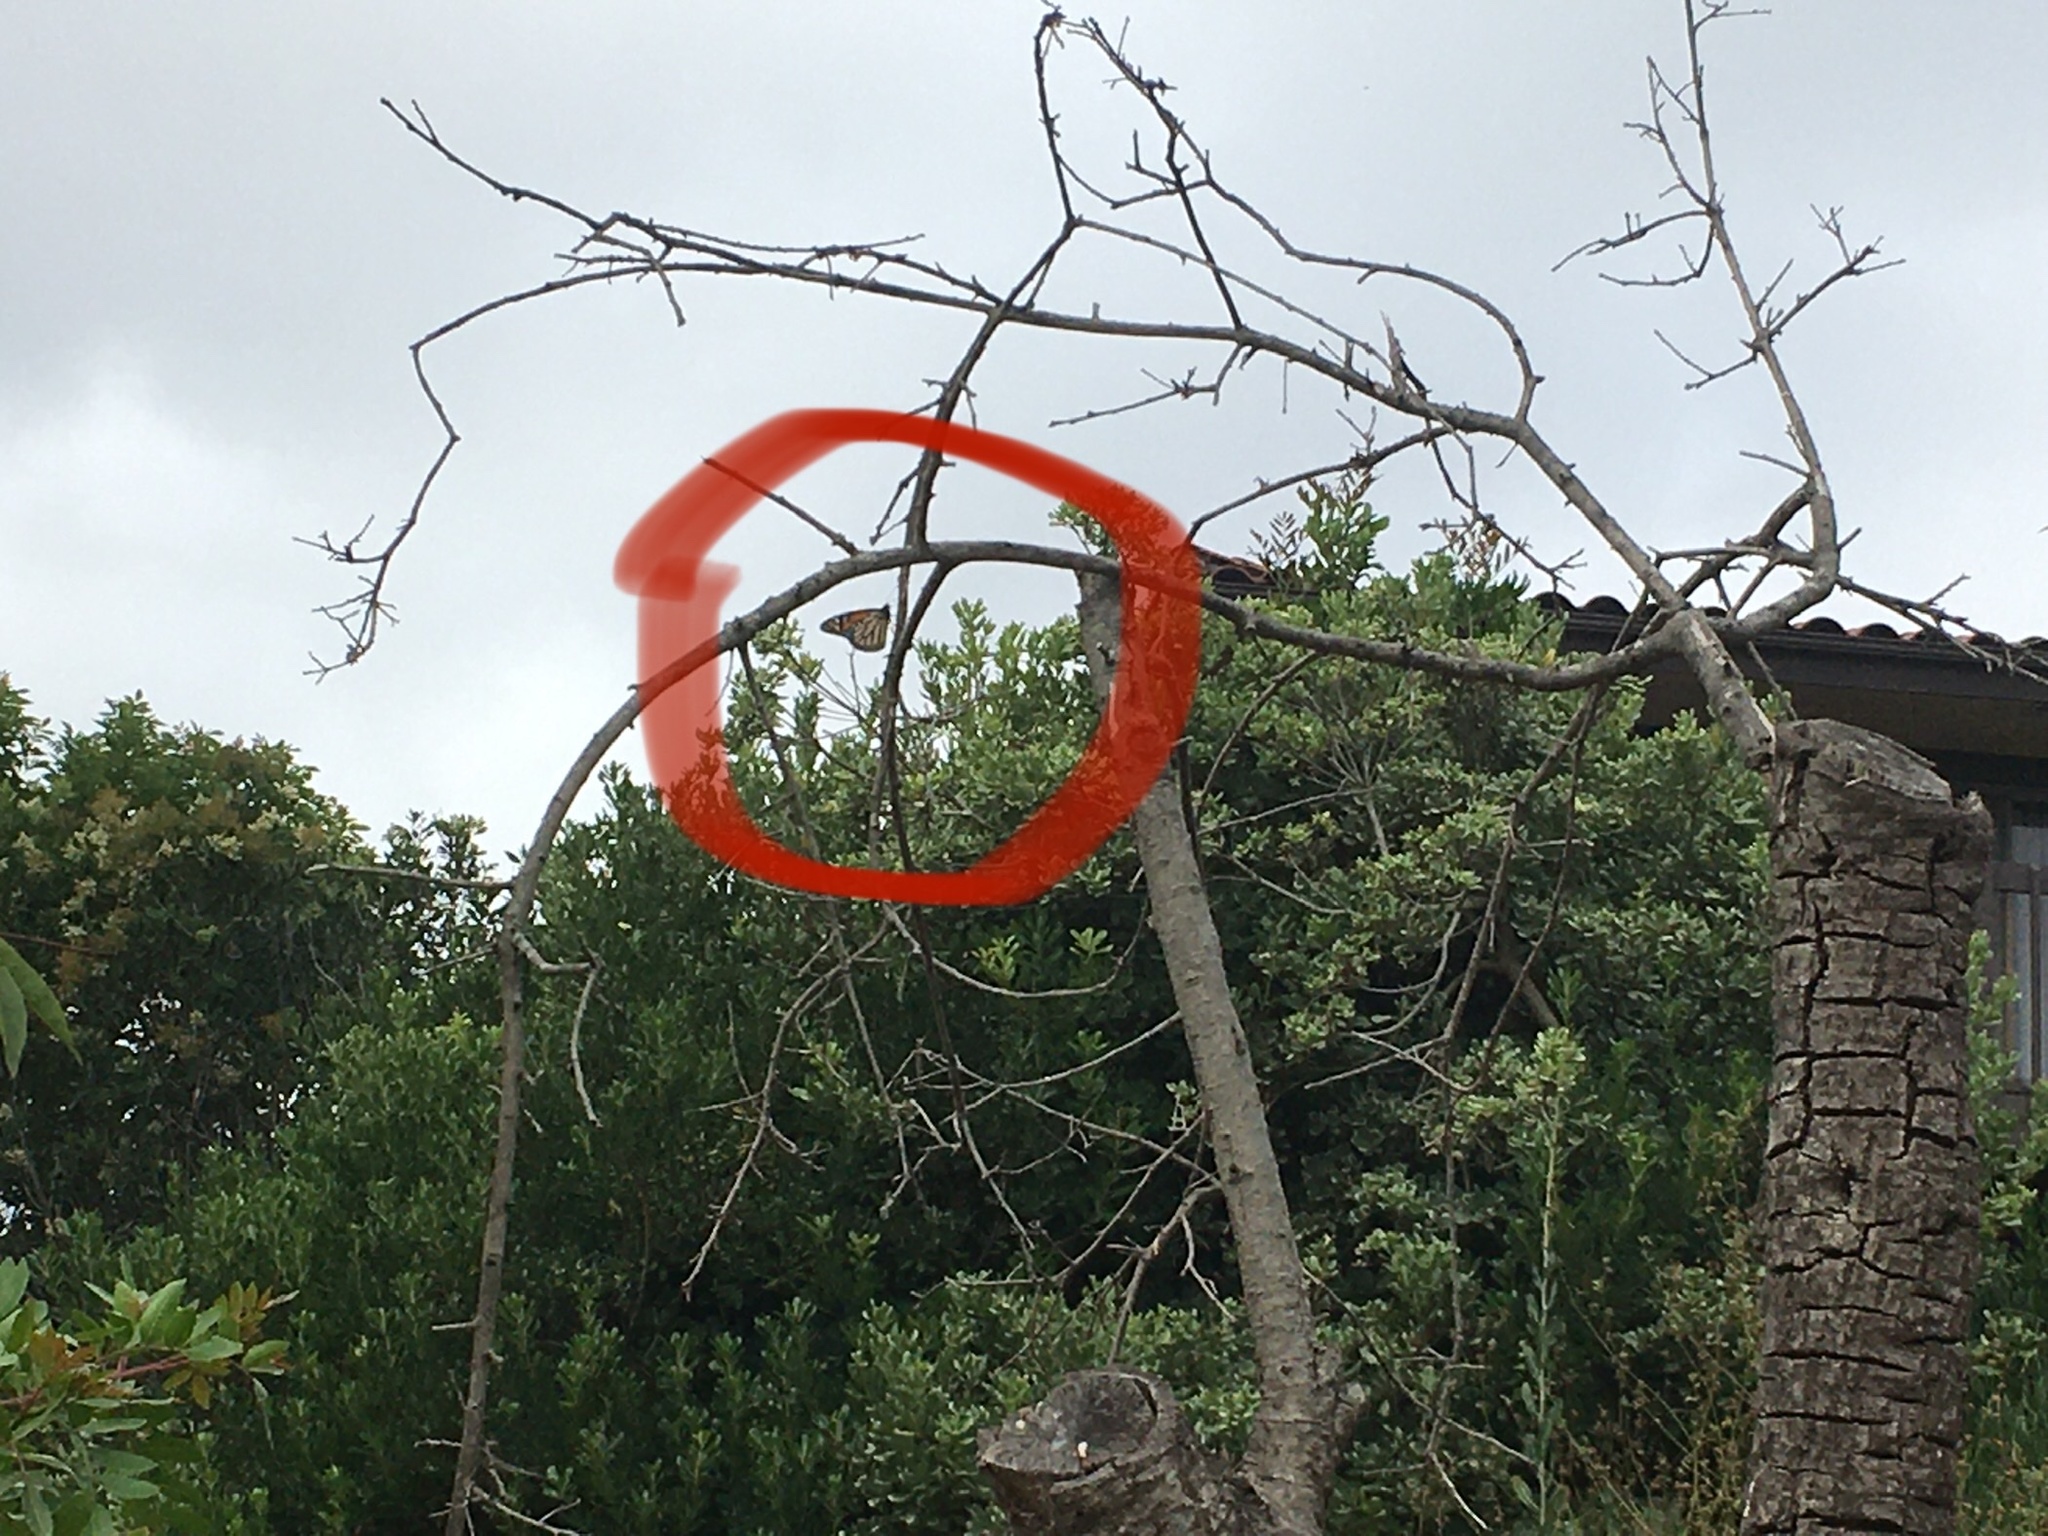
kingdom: Animalia
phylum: Arthropoda
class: Insecta
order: Lepidoptera
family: Nymphalidae
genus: Danaus
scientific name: Danaus plexippus
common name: Monarch
